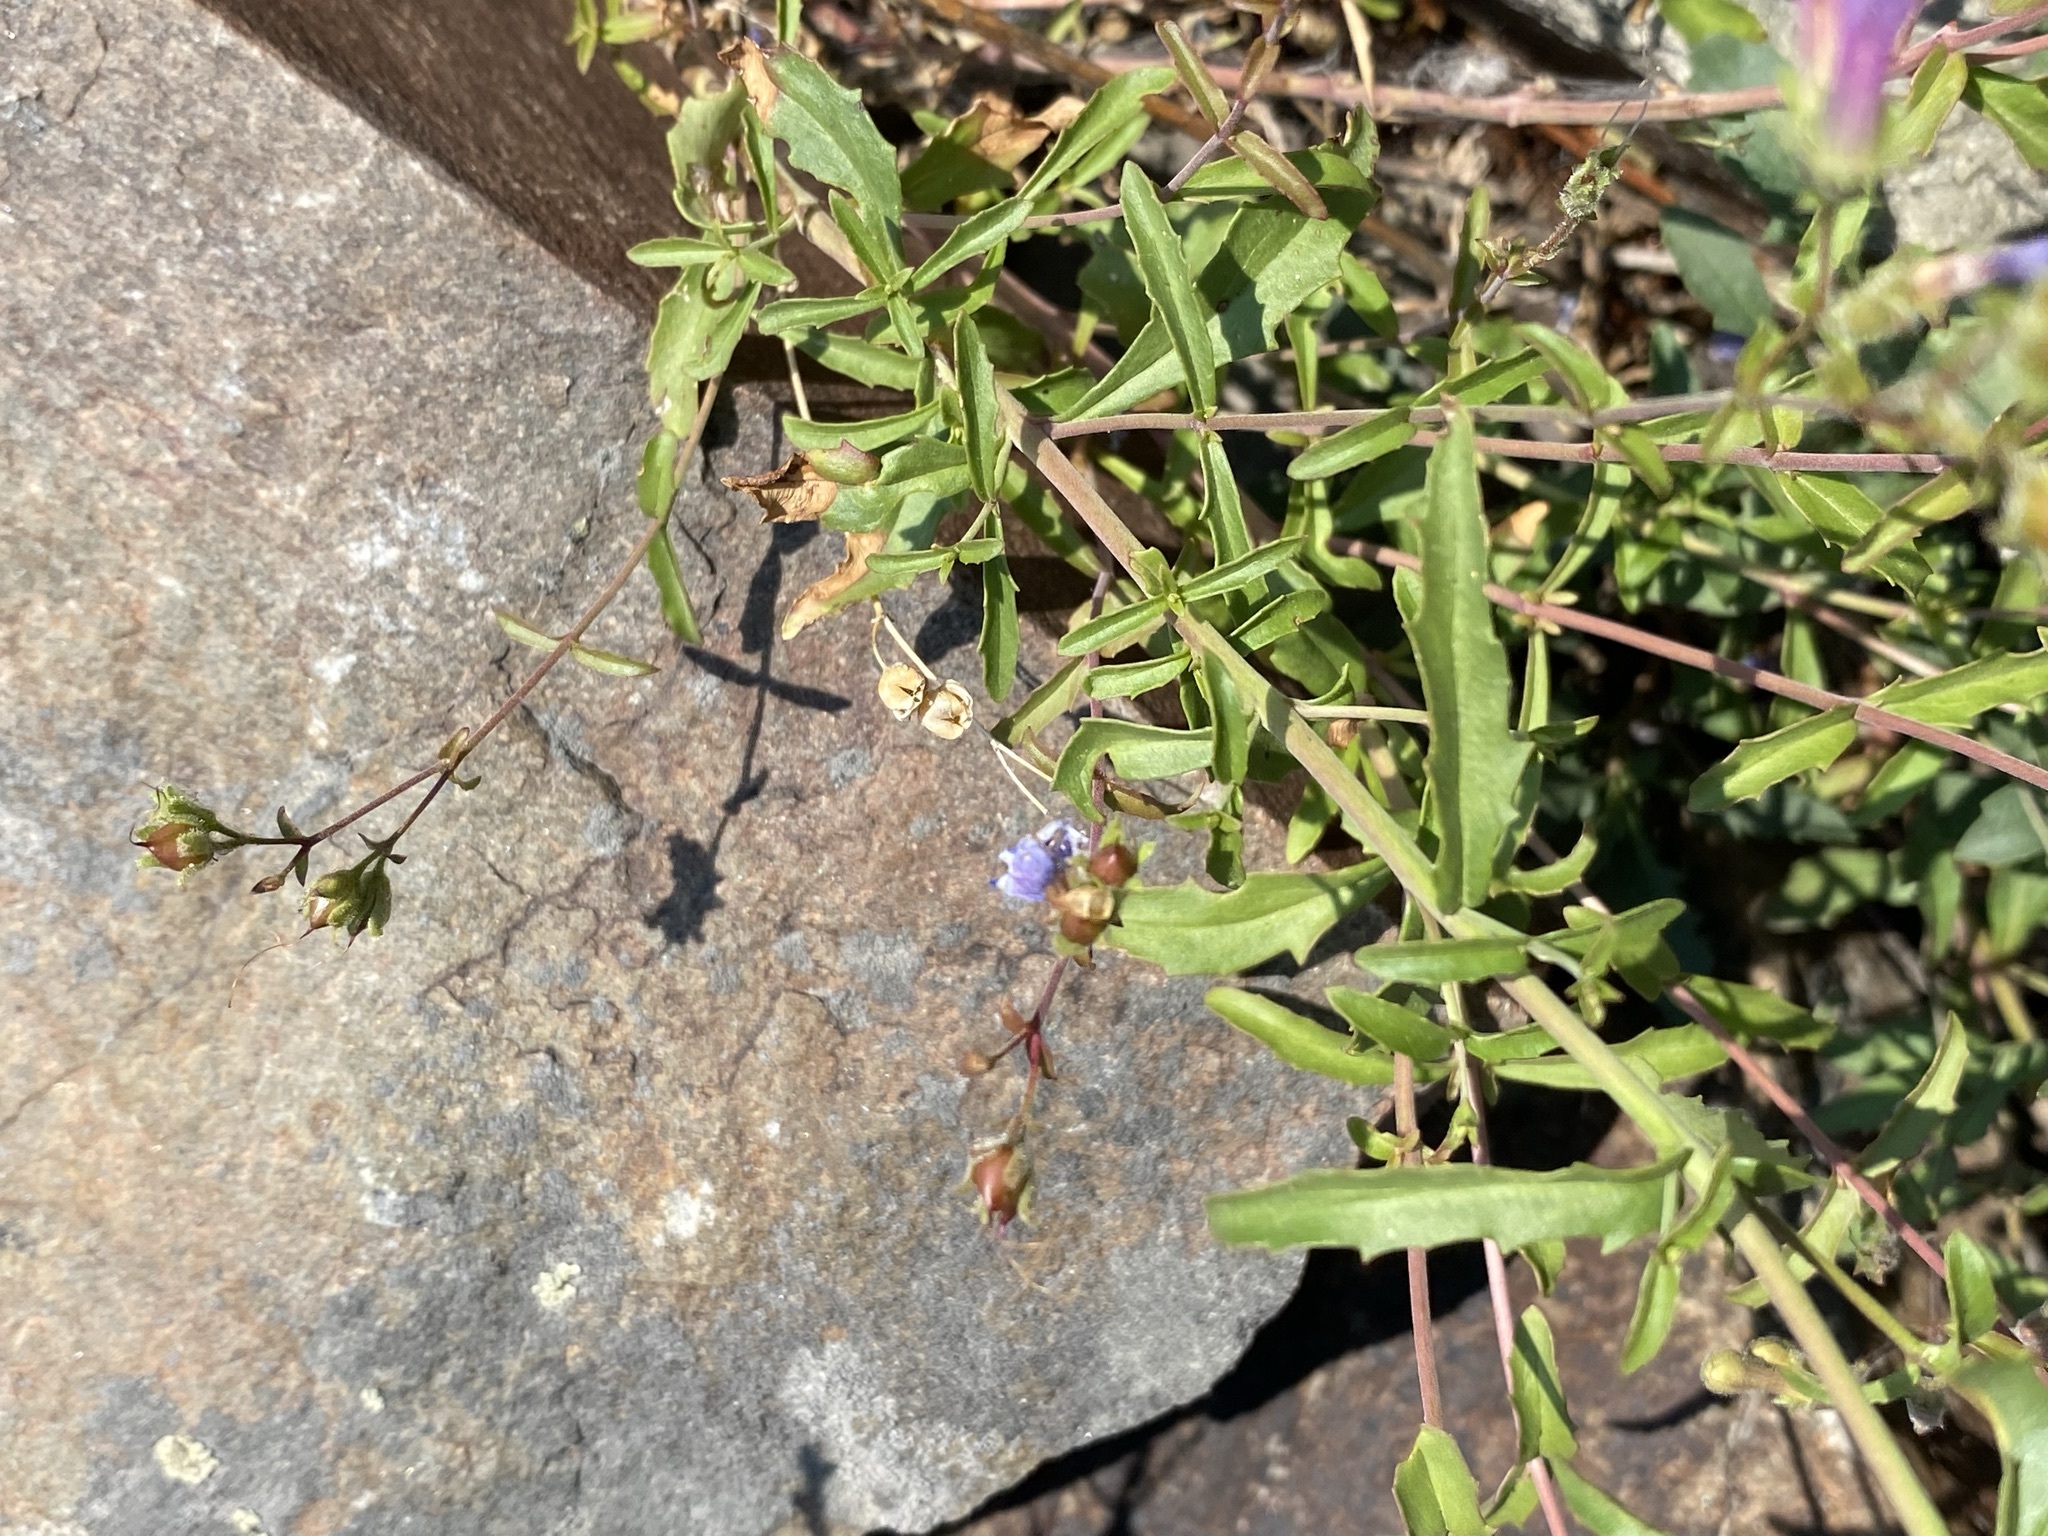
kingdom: Plantae
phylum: Tracheophyta
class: Magnoliopsida
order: Lamiales
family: Plantaginaceae
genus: Penstemon
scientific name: Penstemon diphyllus
